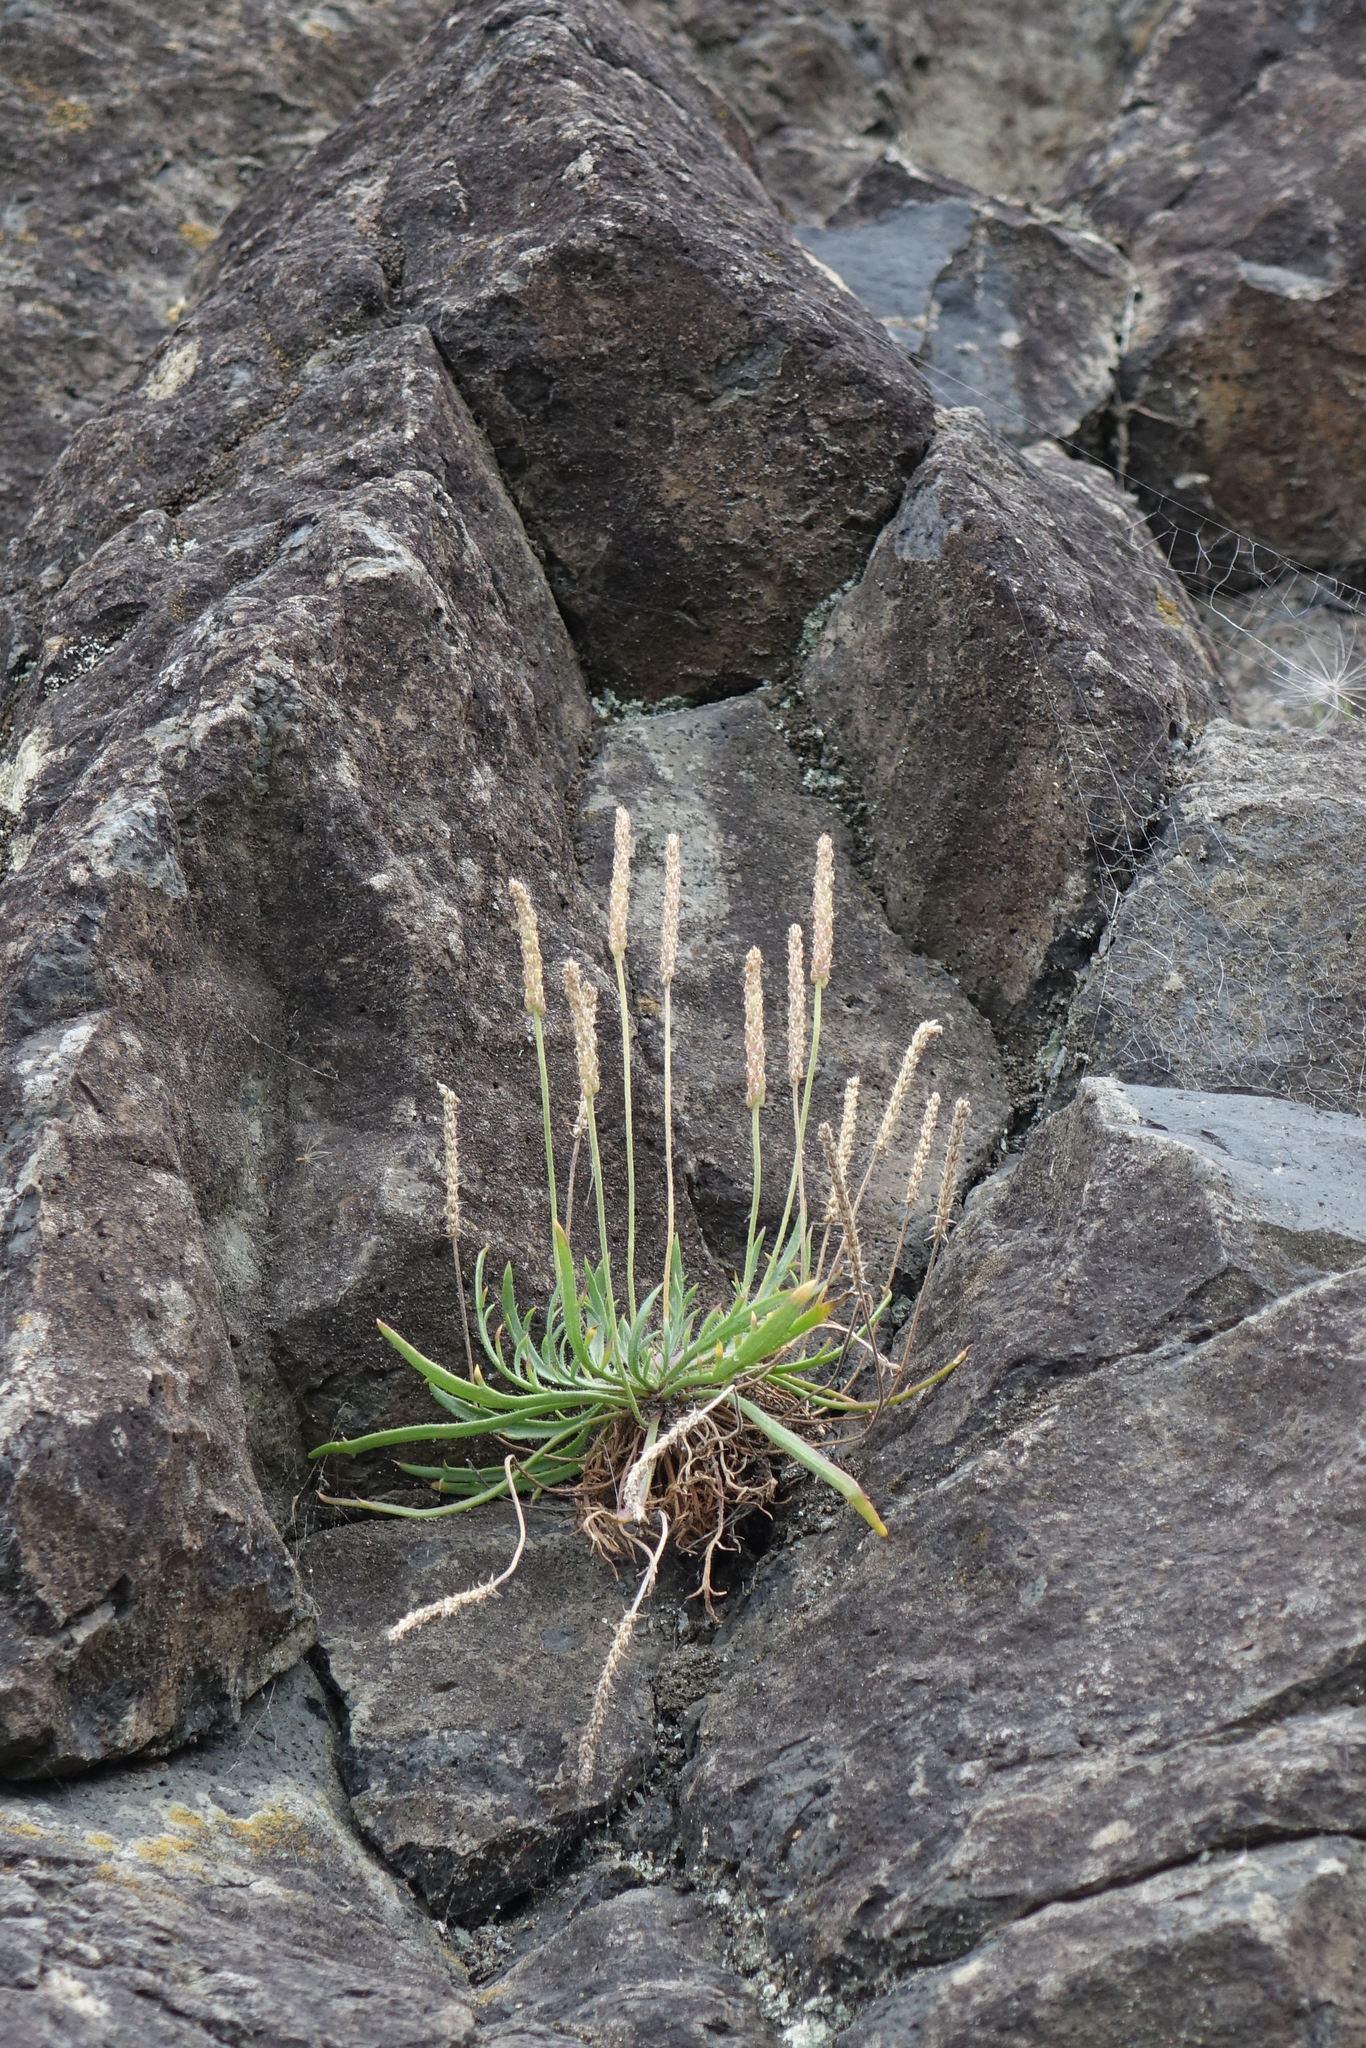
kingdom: Plantae
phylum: Tracheophyta
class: Magnoliopsida
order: Lamiales
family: Plantaginaceae
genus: Plantago
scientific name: Plantago coronopus
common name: Buck's-horn plantain
